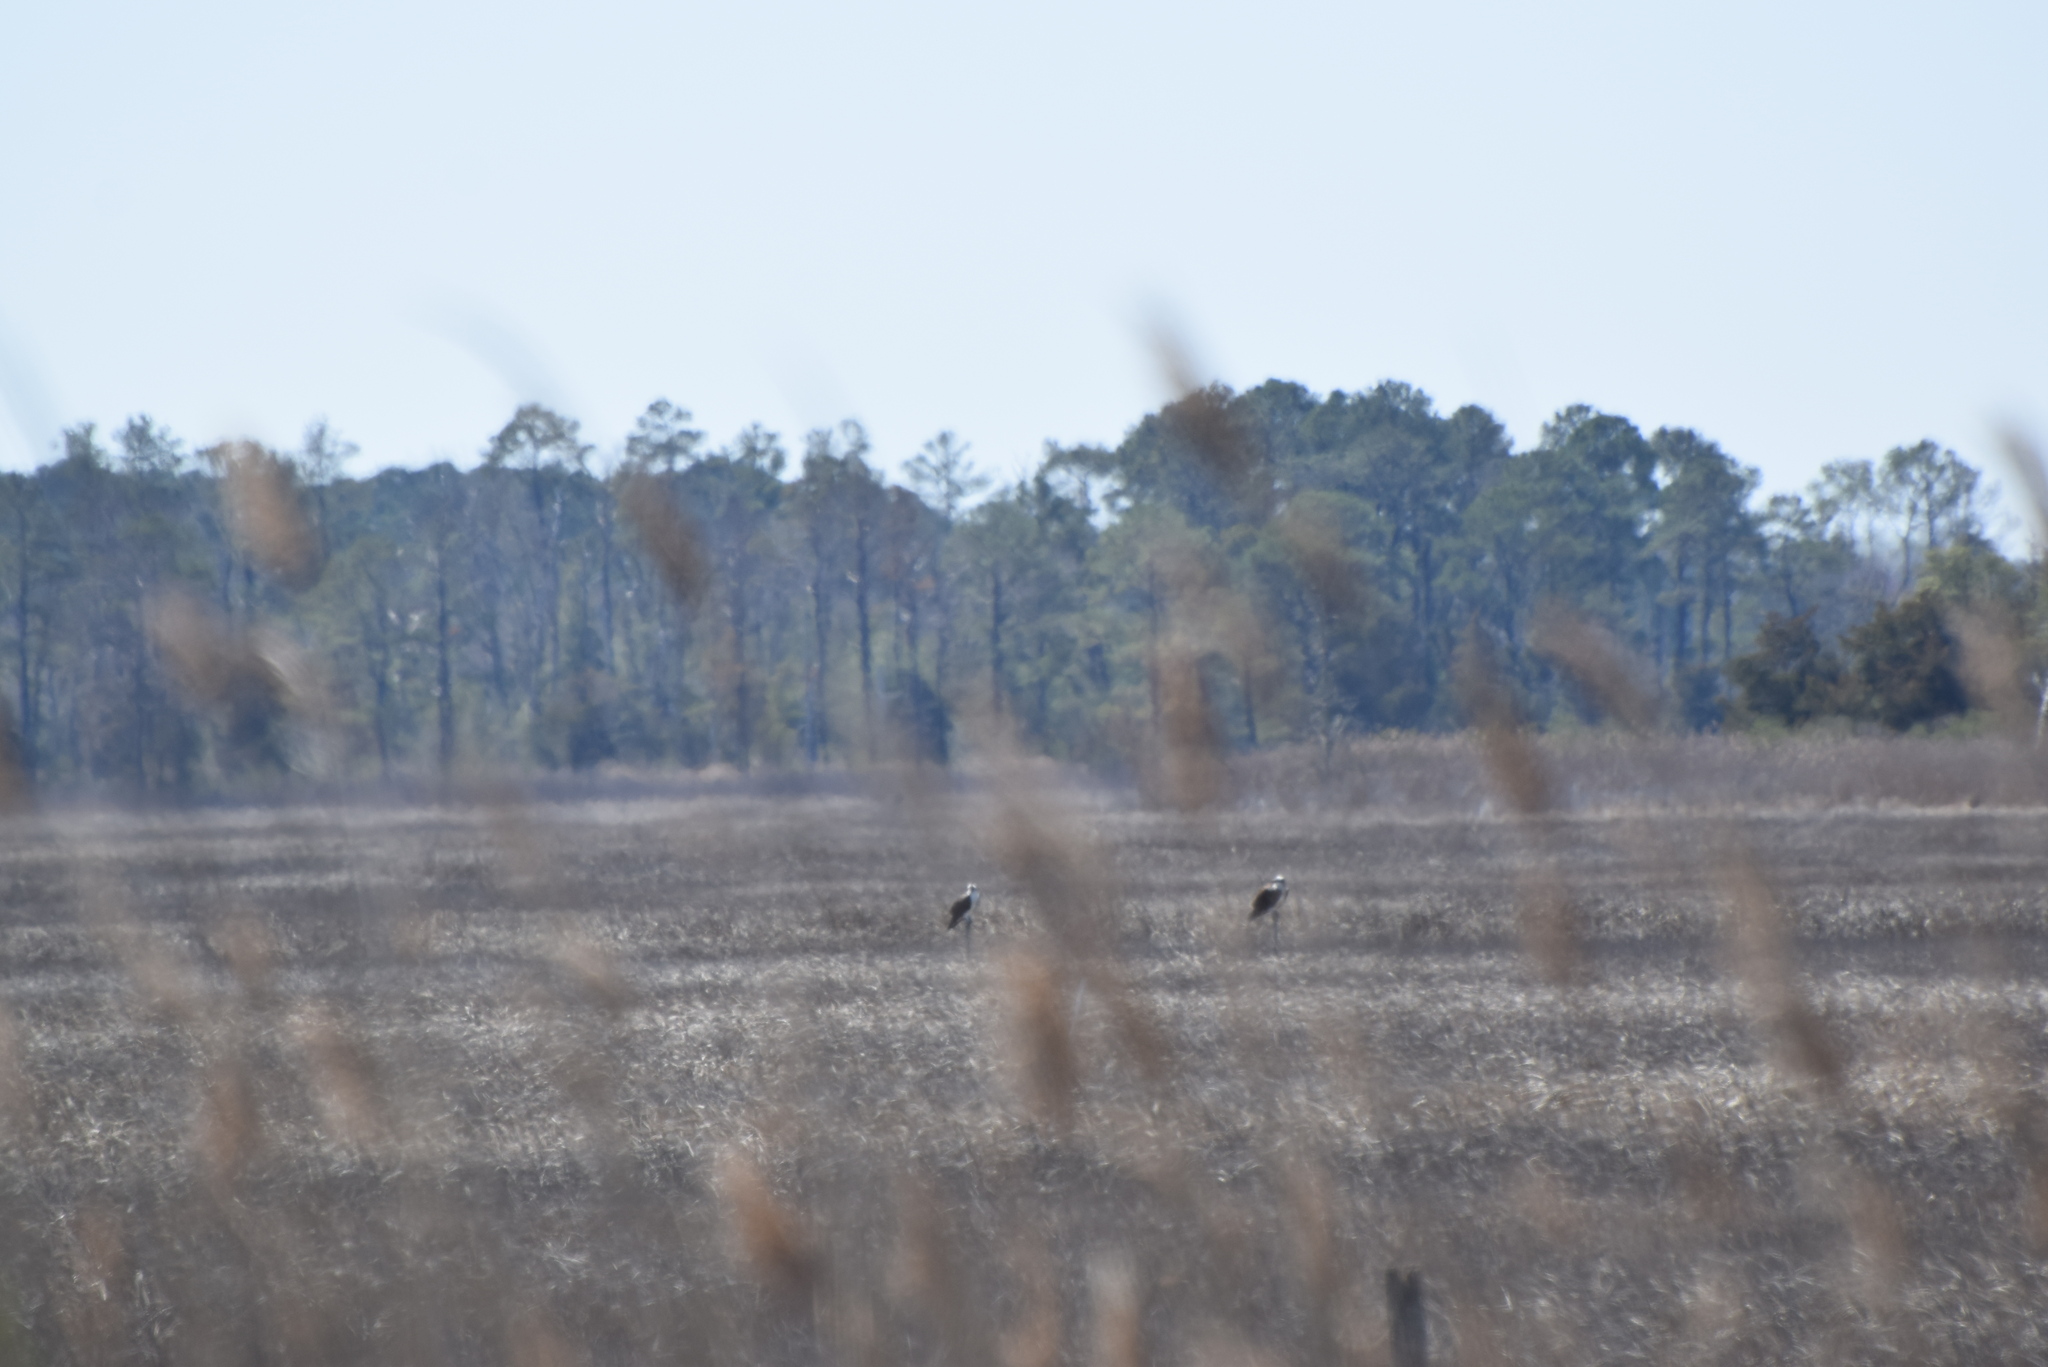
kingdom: Animalia
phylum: Chordata
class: Aves
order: Accipitriformes
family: Pandionidae
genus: Pandion
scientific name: Pandion haliaetus
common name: Osprey
